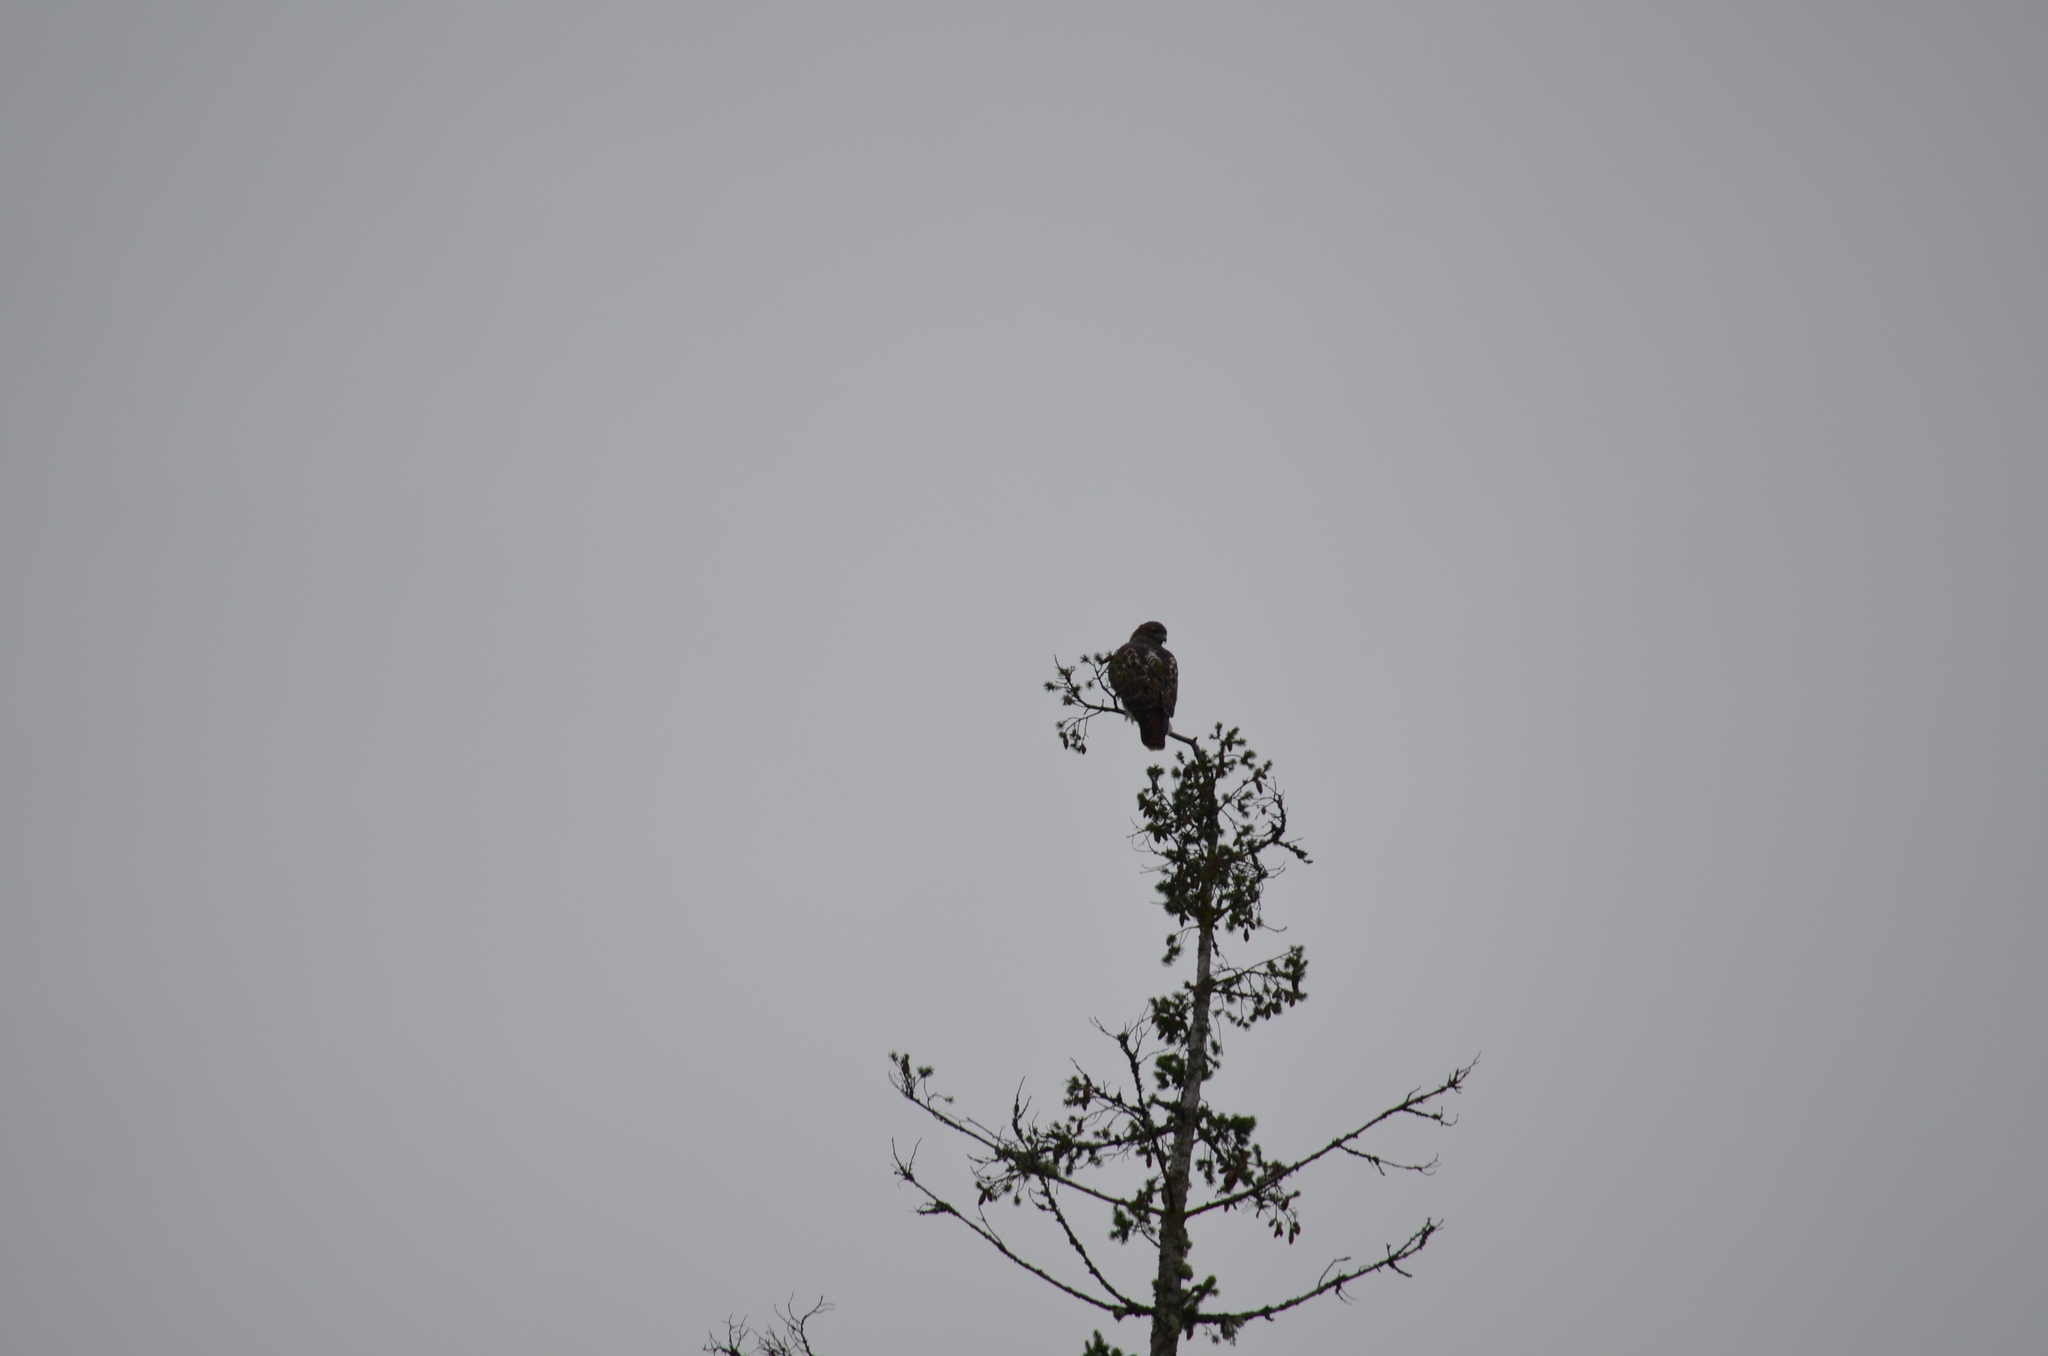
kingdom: Animalia
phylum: Chordata
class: Aves
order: Accipitriformes
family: Accipitridae
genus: Buteo
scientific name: Buteo jamaicensis
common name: Red-tailed hawk
